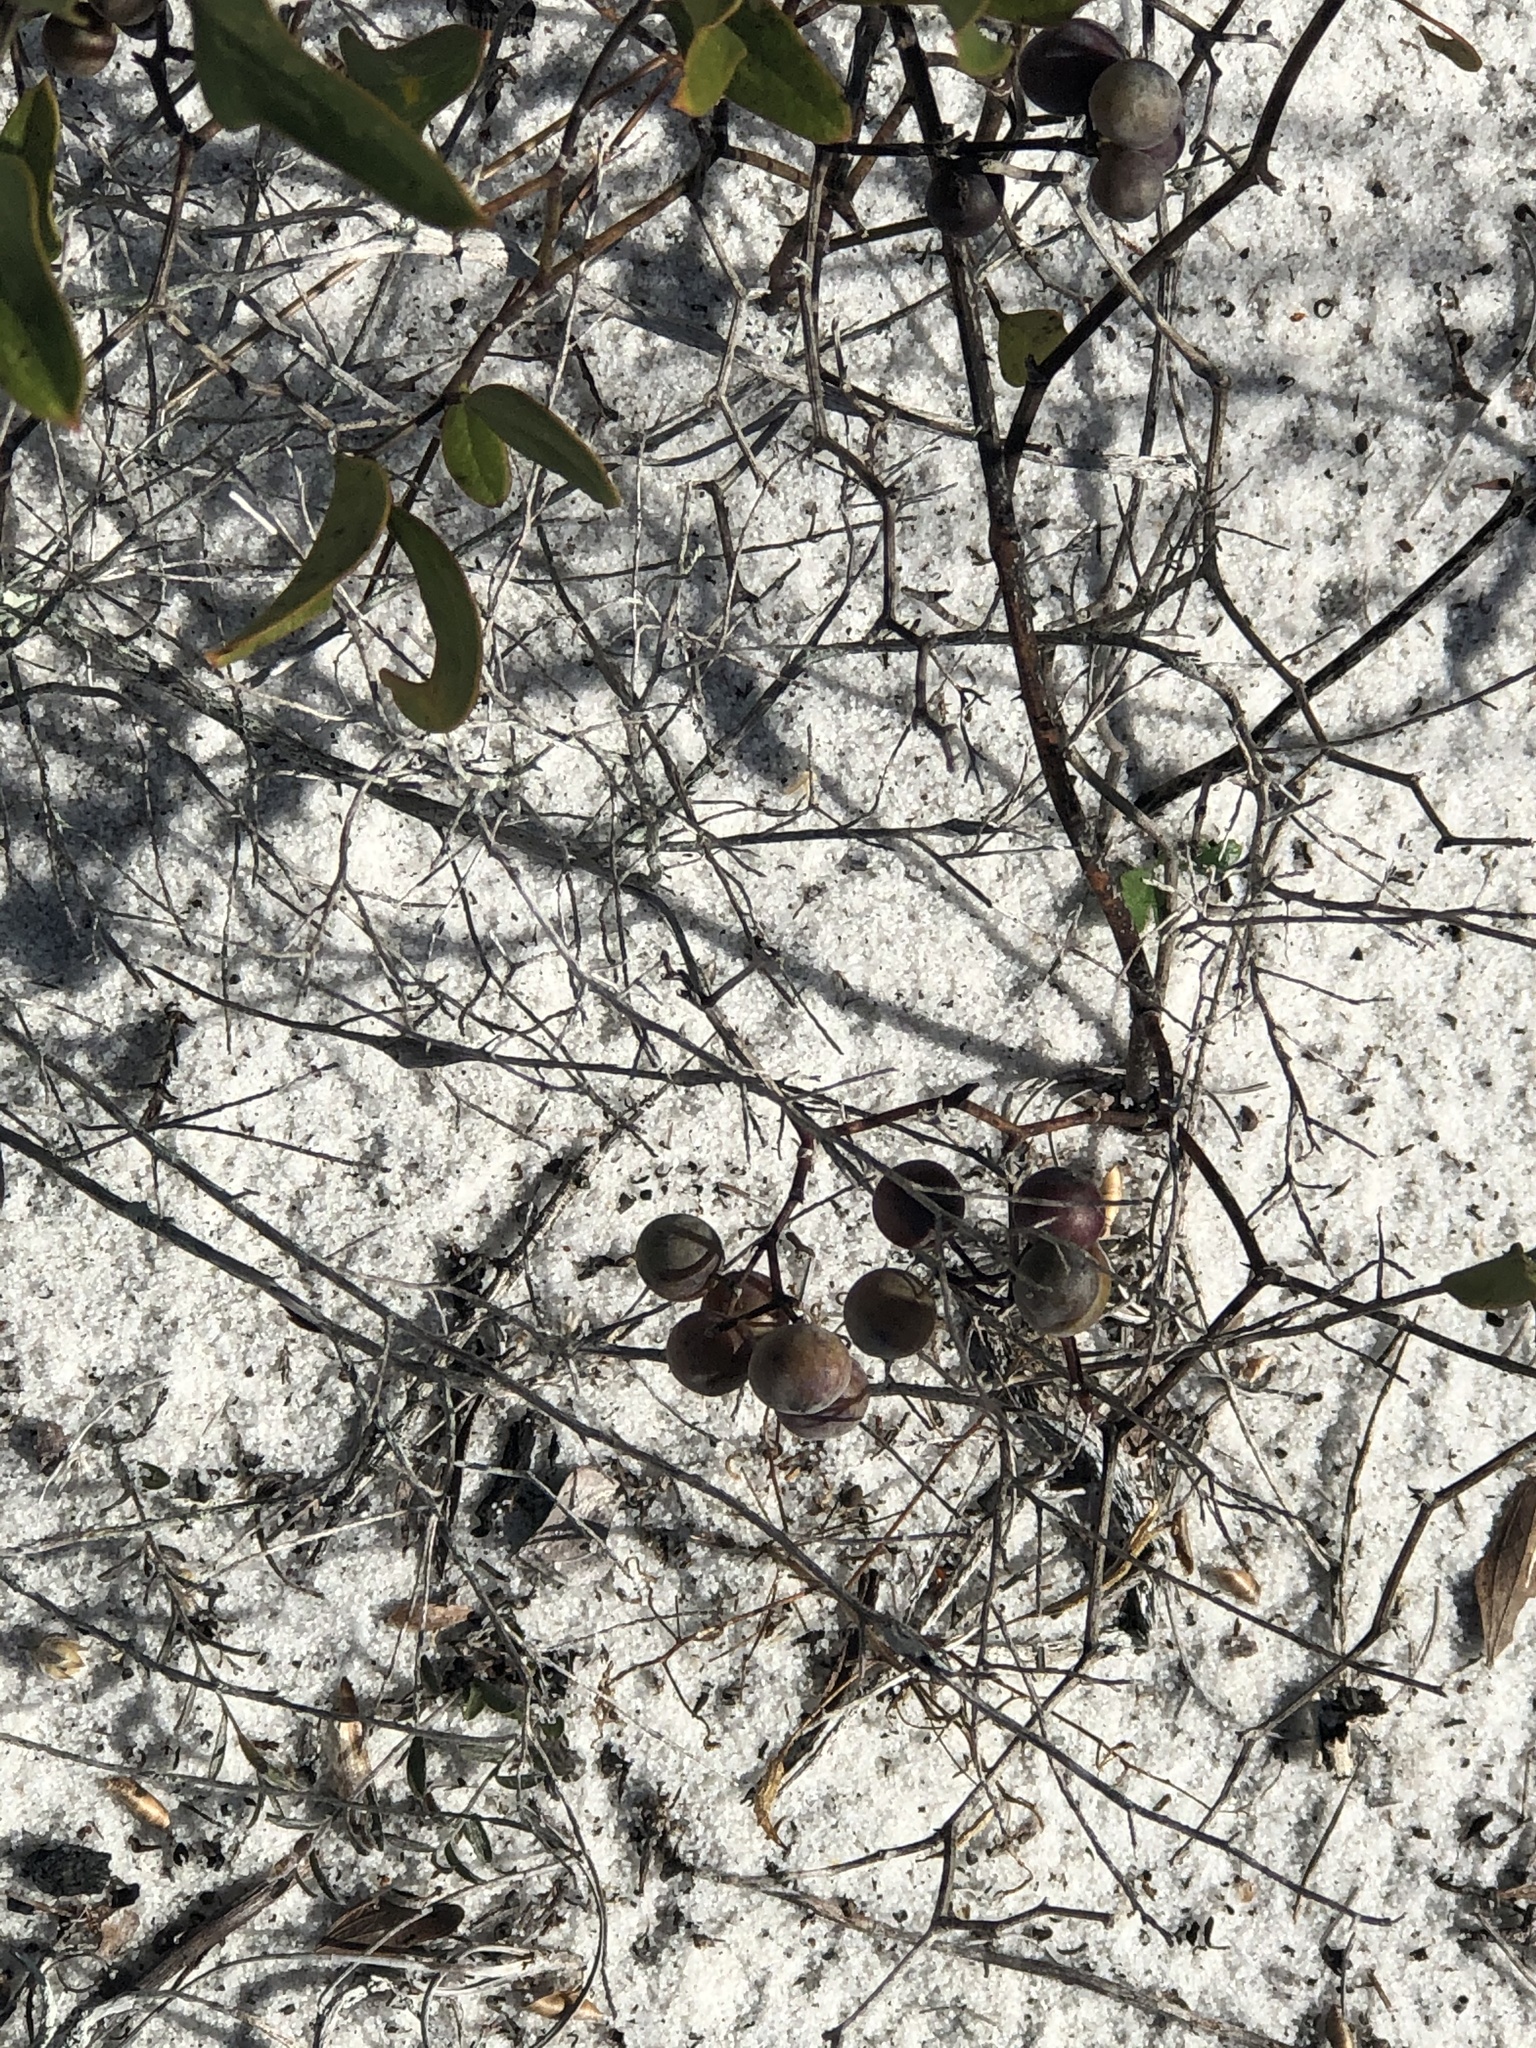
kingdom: Plantae
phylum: Tracheophyta
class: Liliopsida
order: Liliales
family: Smilacaceae
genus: Smilax
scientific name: Smilax auriculata
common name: Wild bamboo
